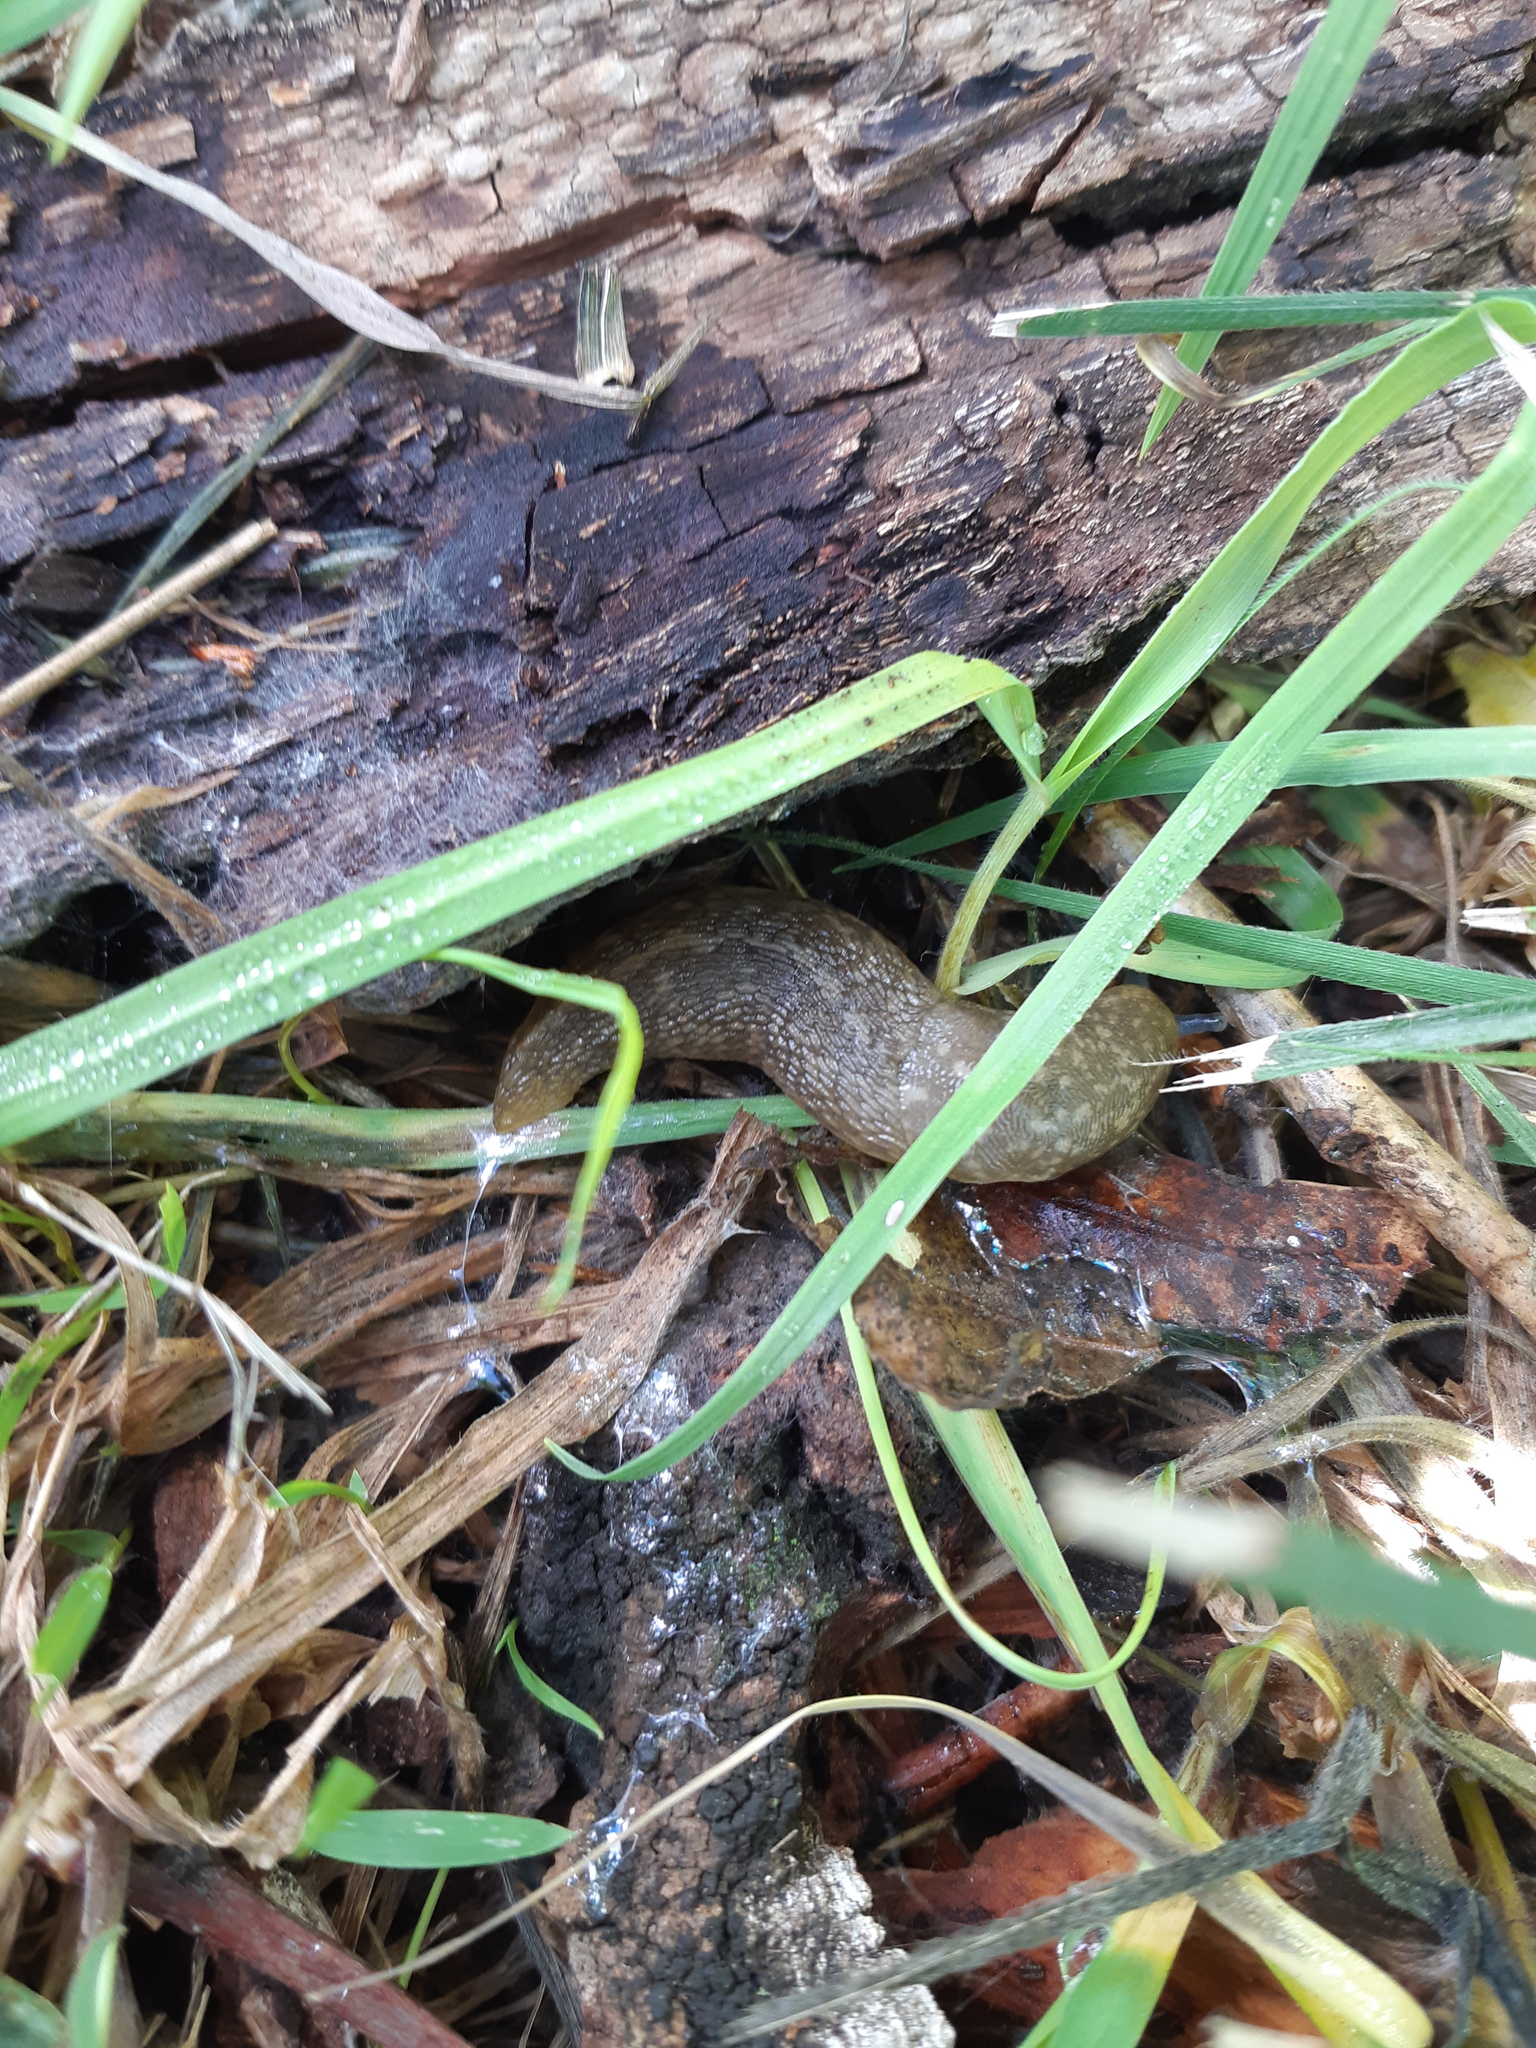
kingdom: Animalia
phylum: Mollusca
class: Gastropoda
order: Stylommatophora
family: Limacidae
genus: Limacus
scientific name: Limacus flavus
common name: Yellow gardenslug
